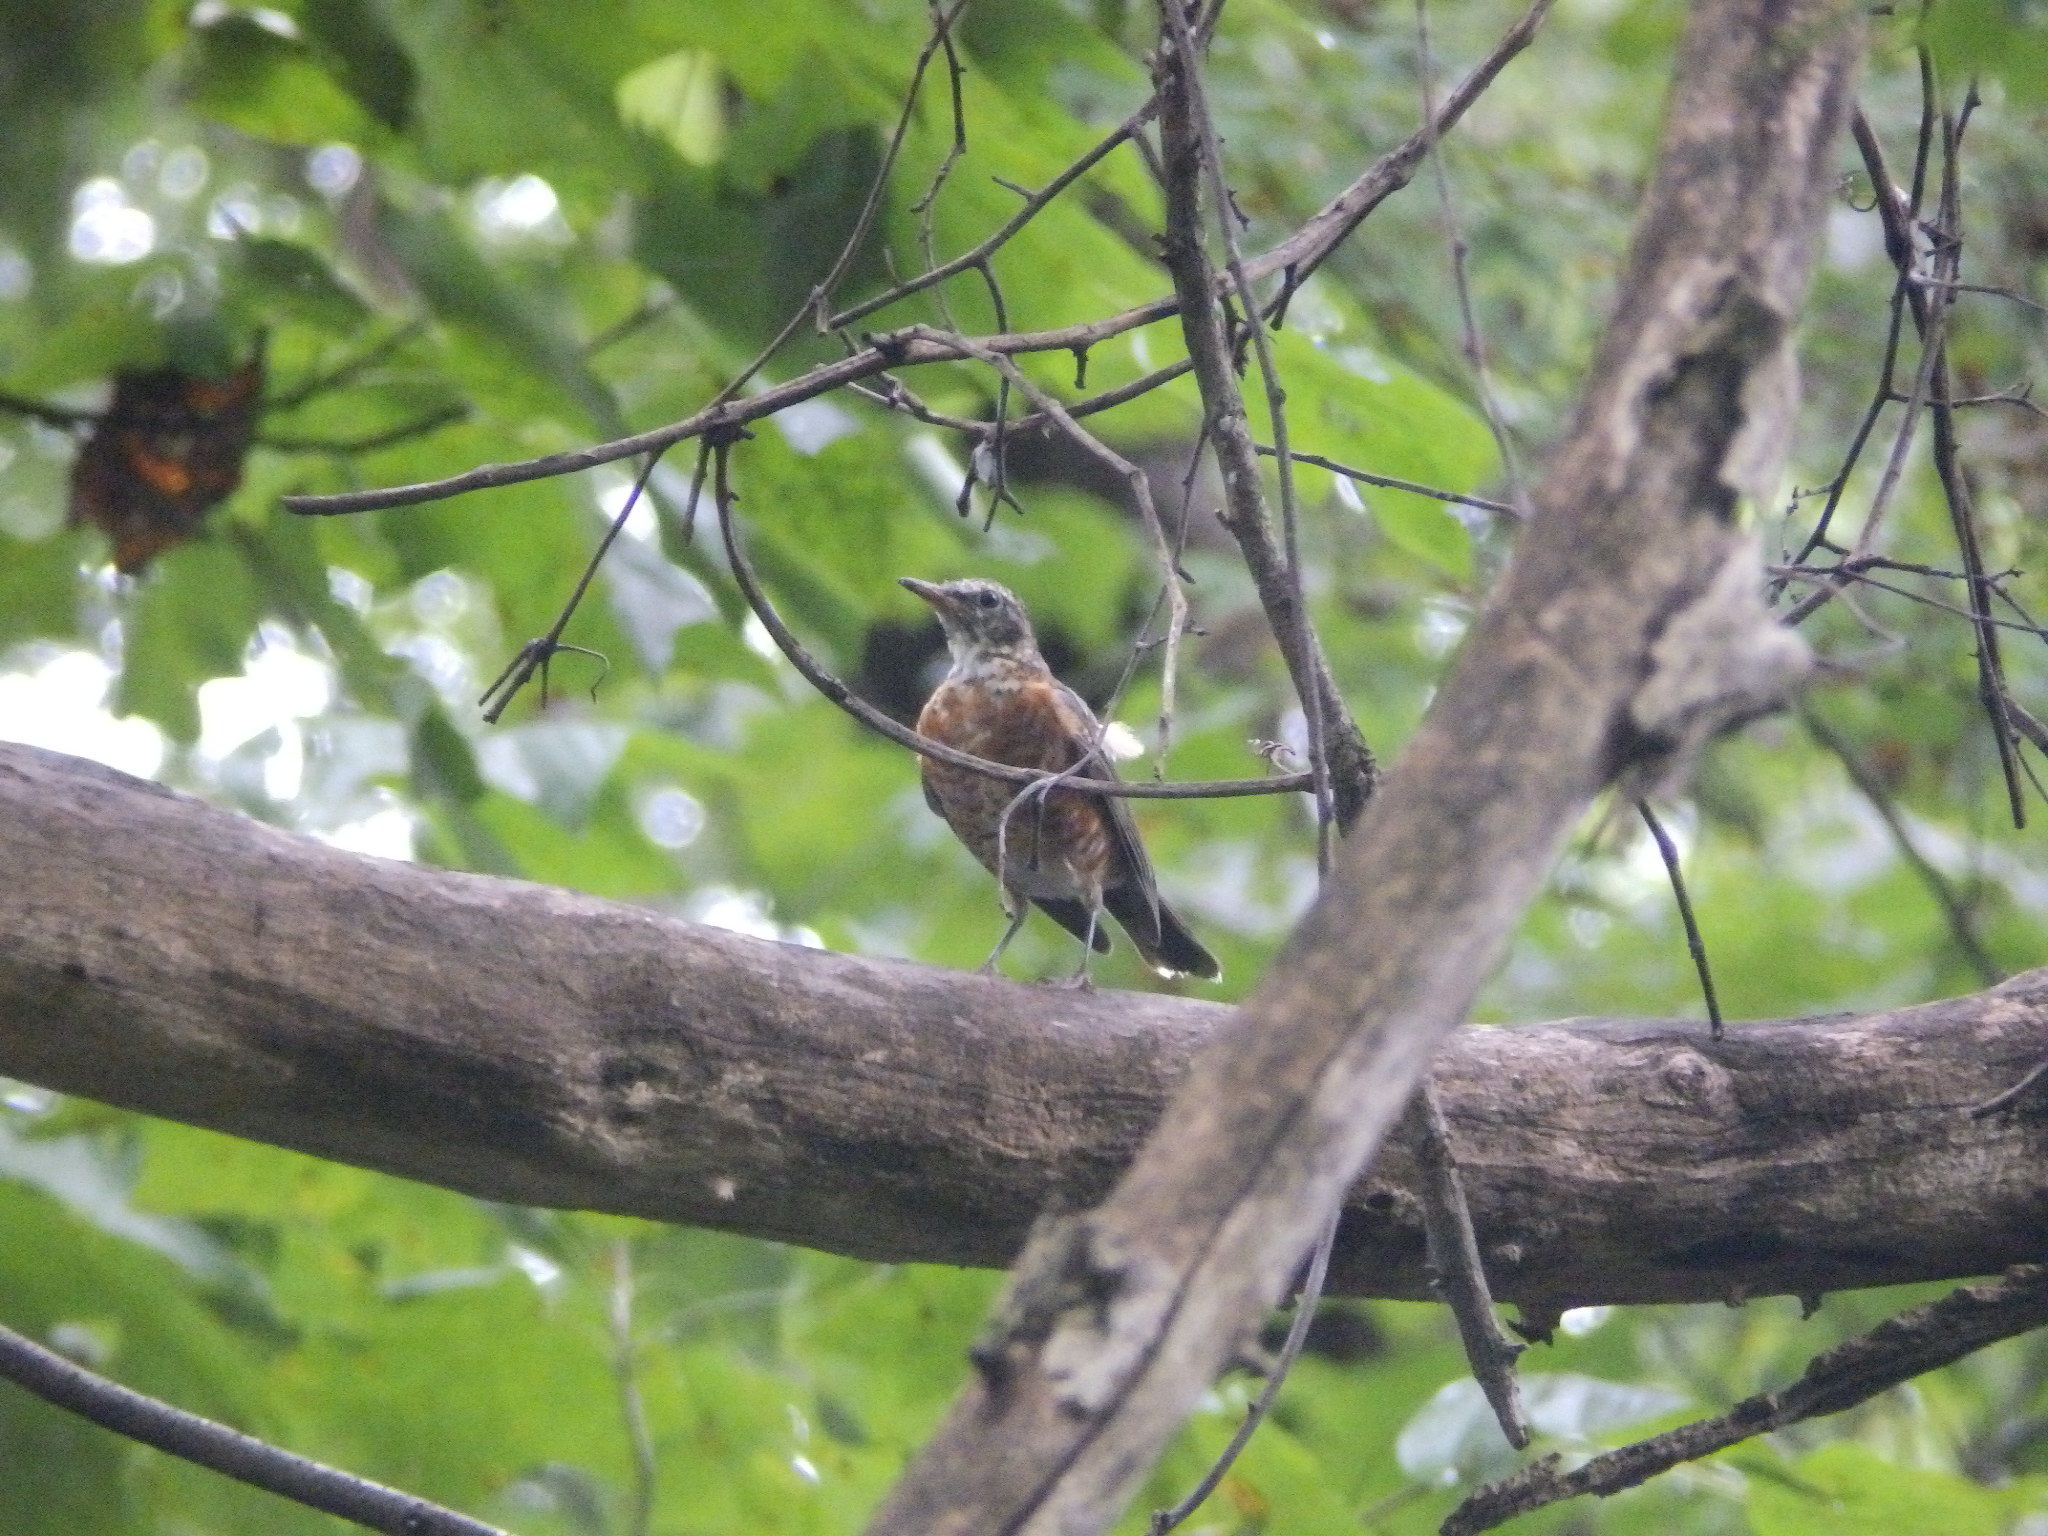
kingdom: Animalia
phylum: Chordata
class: Aves
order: Passeriformes
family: Turdidae
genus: Turdus
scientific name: Turdus migratorius
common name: American robin
